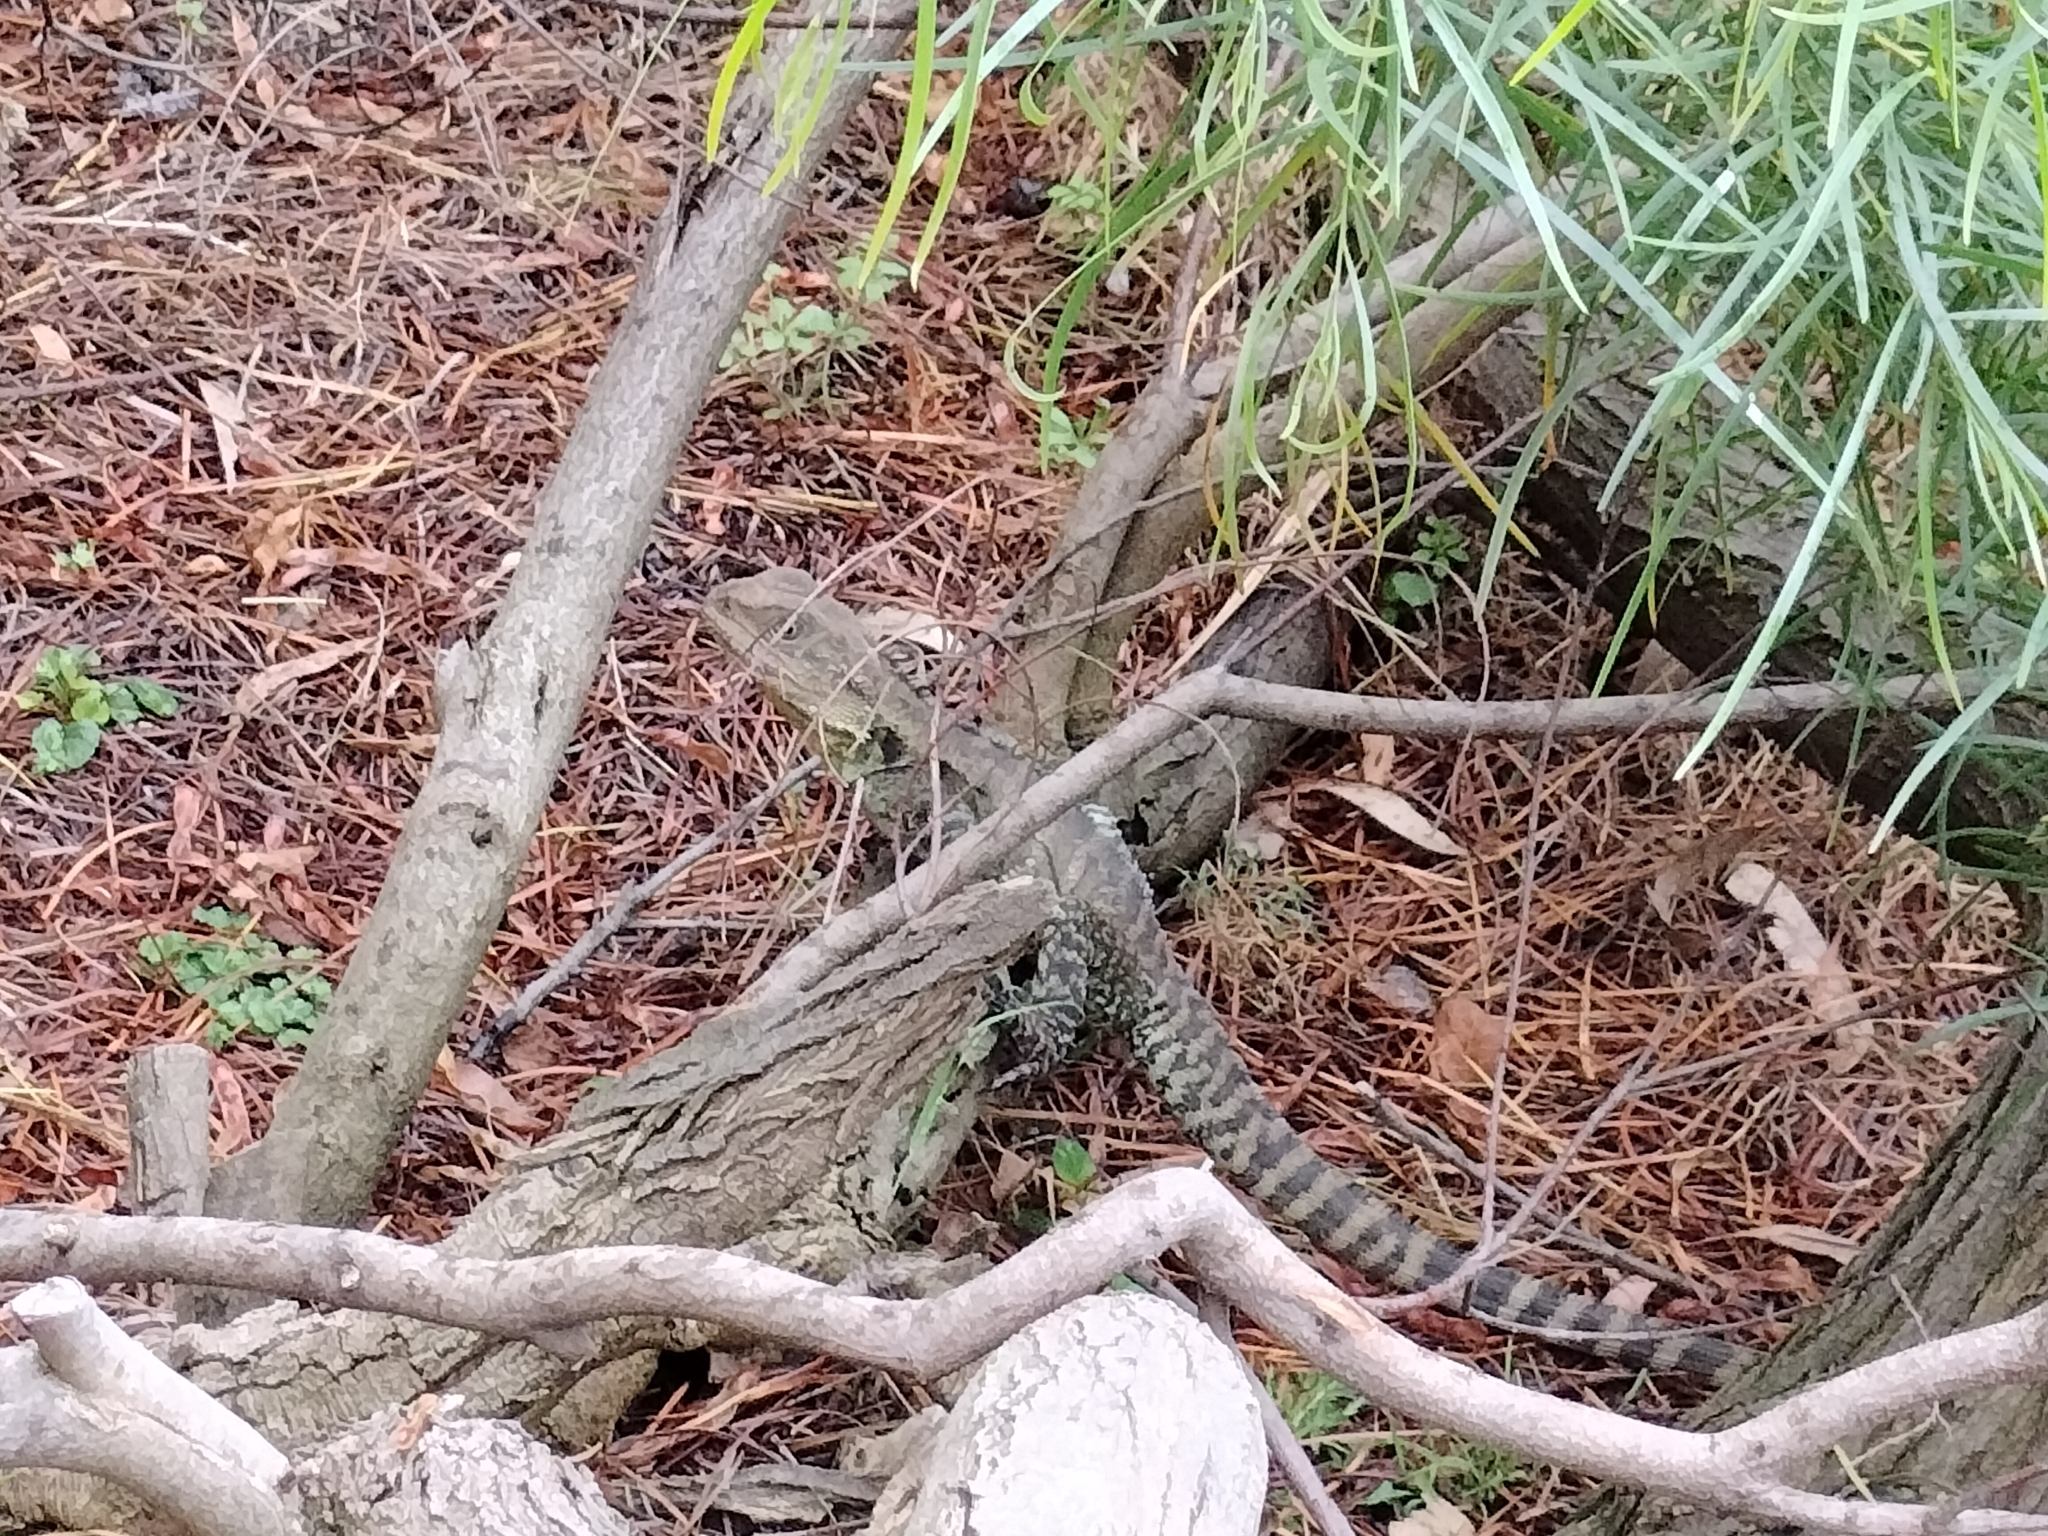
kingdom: Animalia
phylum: Chordata
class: Squamata
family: Agamidae
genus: Intellagama
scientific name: Intellagama lesueurii
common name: Eastern water dragon
